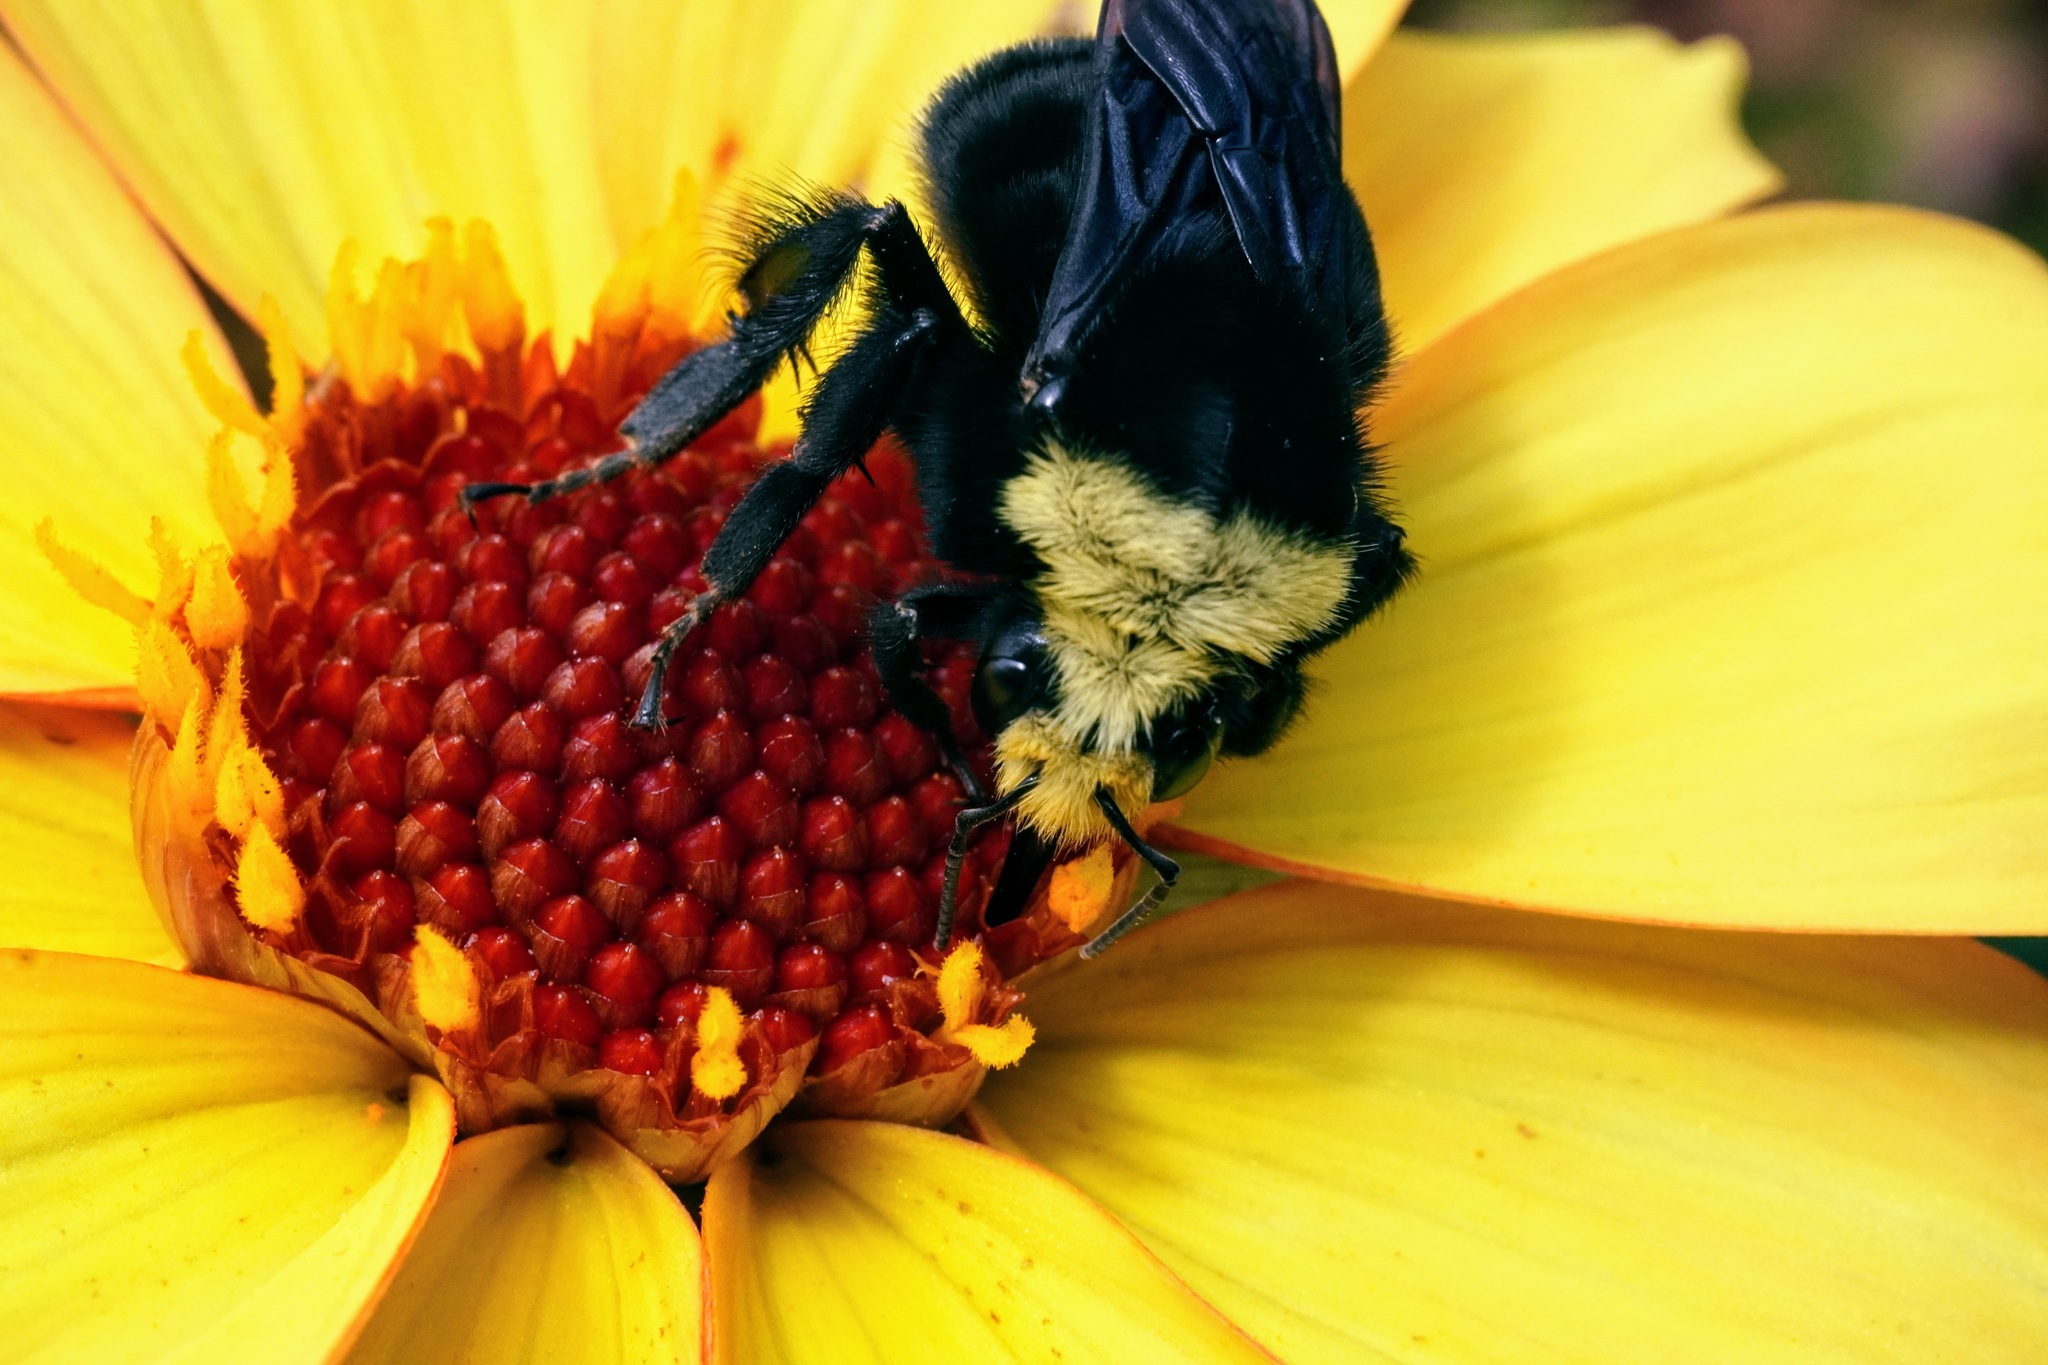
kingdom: Animalia
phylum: Arthropoda
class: Insecta
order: Hymenoptera
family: Apidae
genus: Bombus
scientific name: Bombus vosnesenskii
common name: Vosnesensky bumble bee
